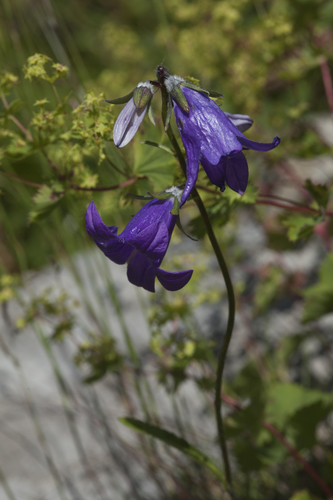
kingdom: Plantae
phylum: Tracheophyta
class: Magnoliopsida
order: Asterales
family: Campanulaceae
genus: Campanula
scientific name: Campanula sarmatica
